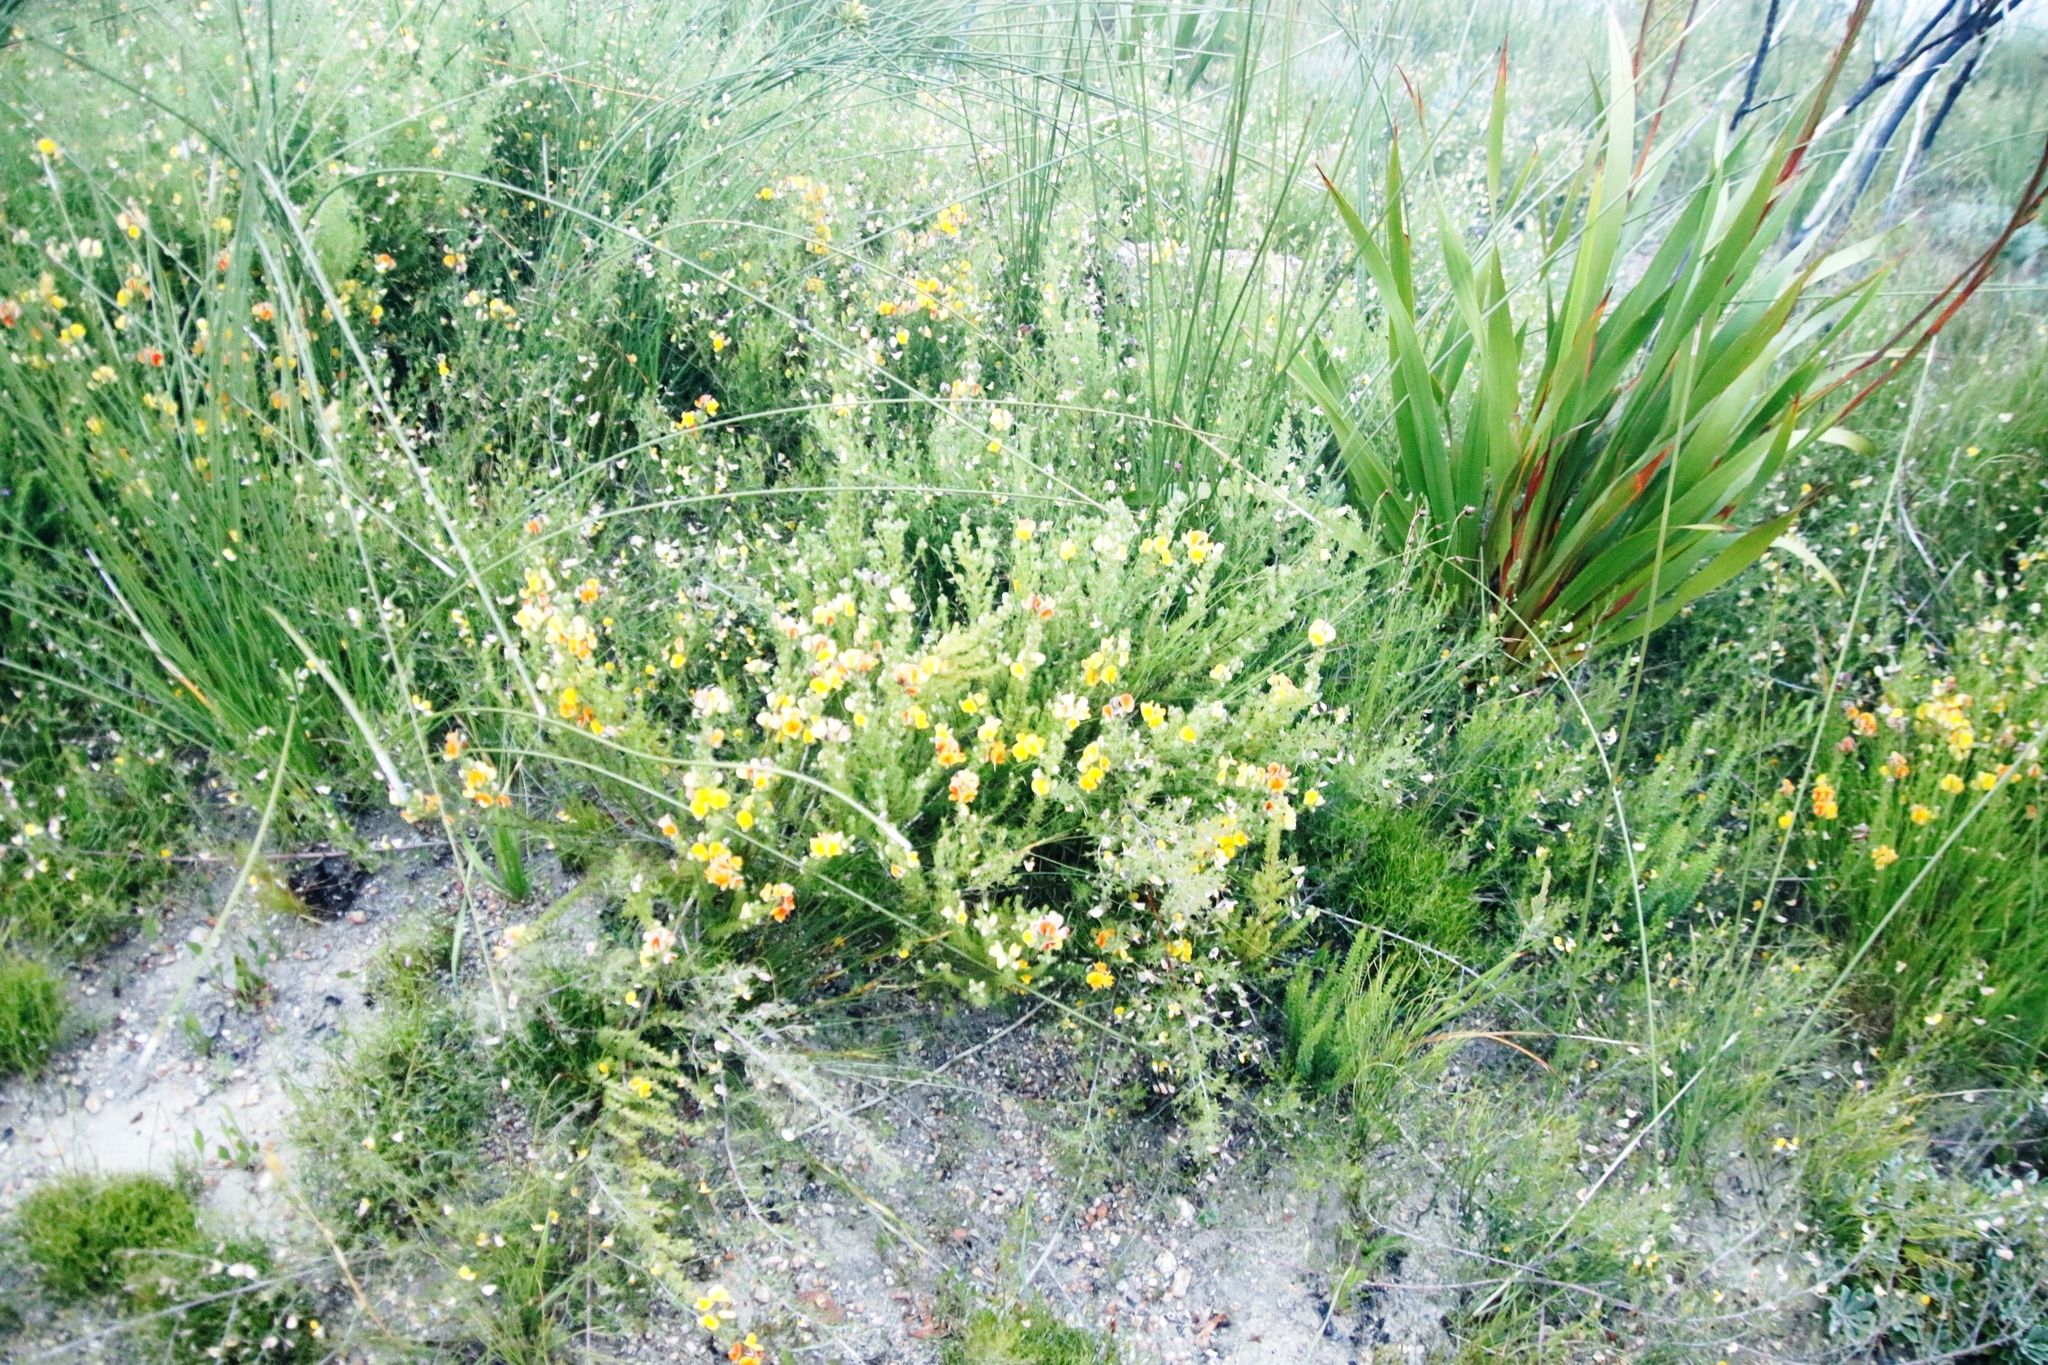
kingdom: Plantae
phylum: Tracheophyta
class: Magnoliopsida
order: Fabales
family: Fabaceae
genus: Aspalathus
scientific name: Aspalathus ciliaris
